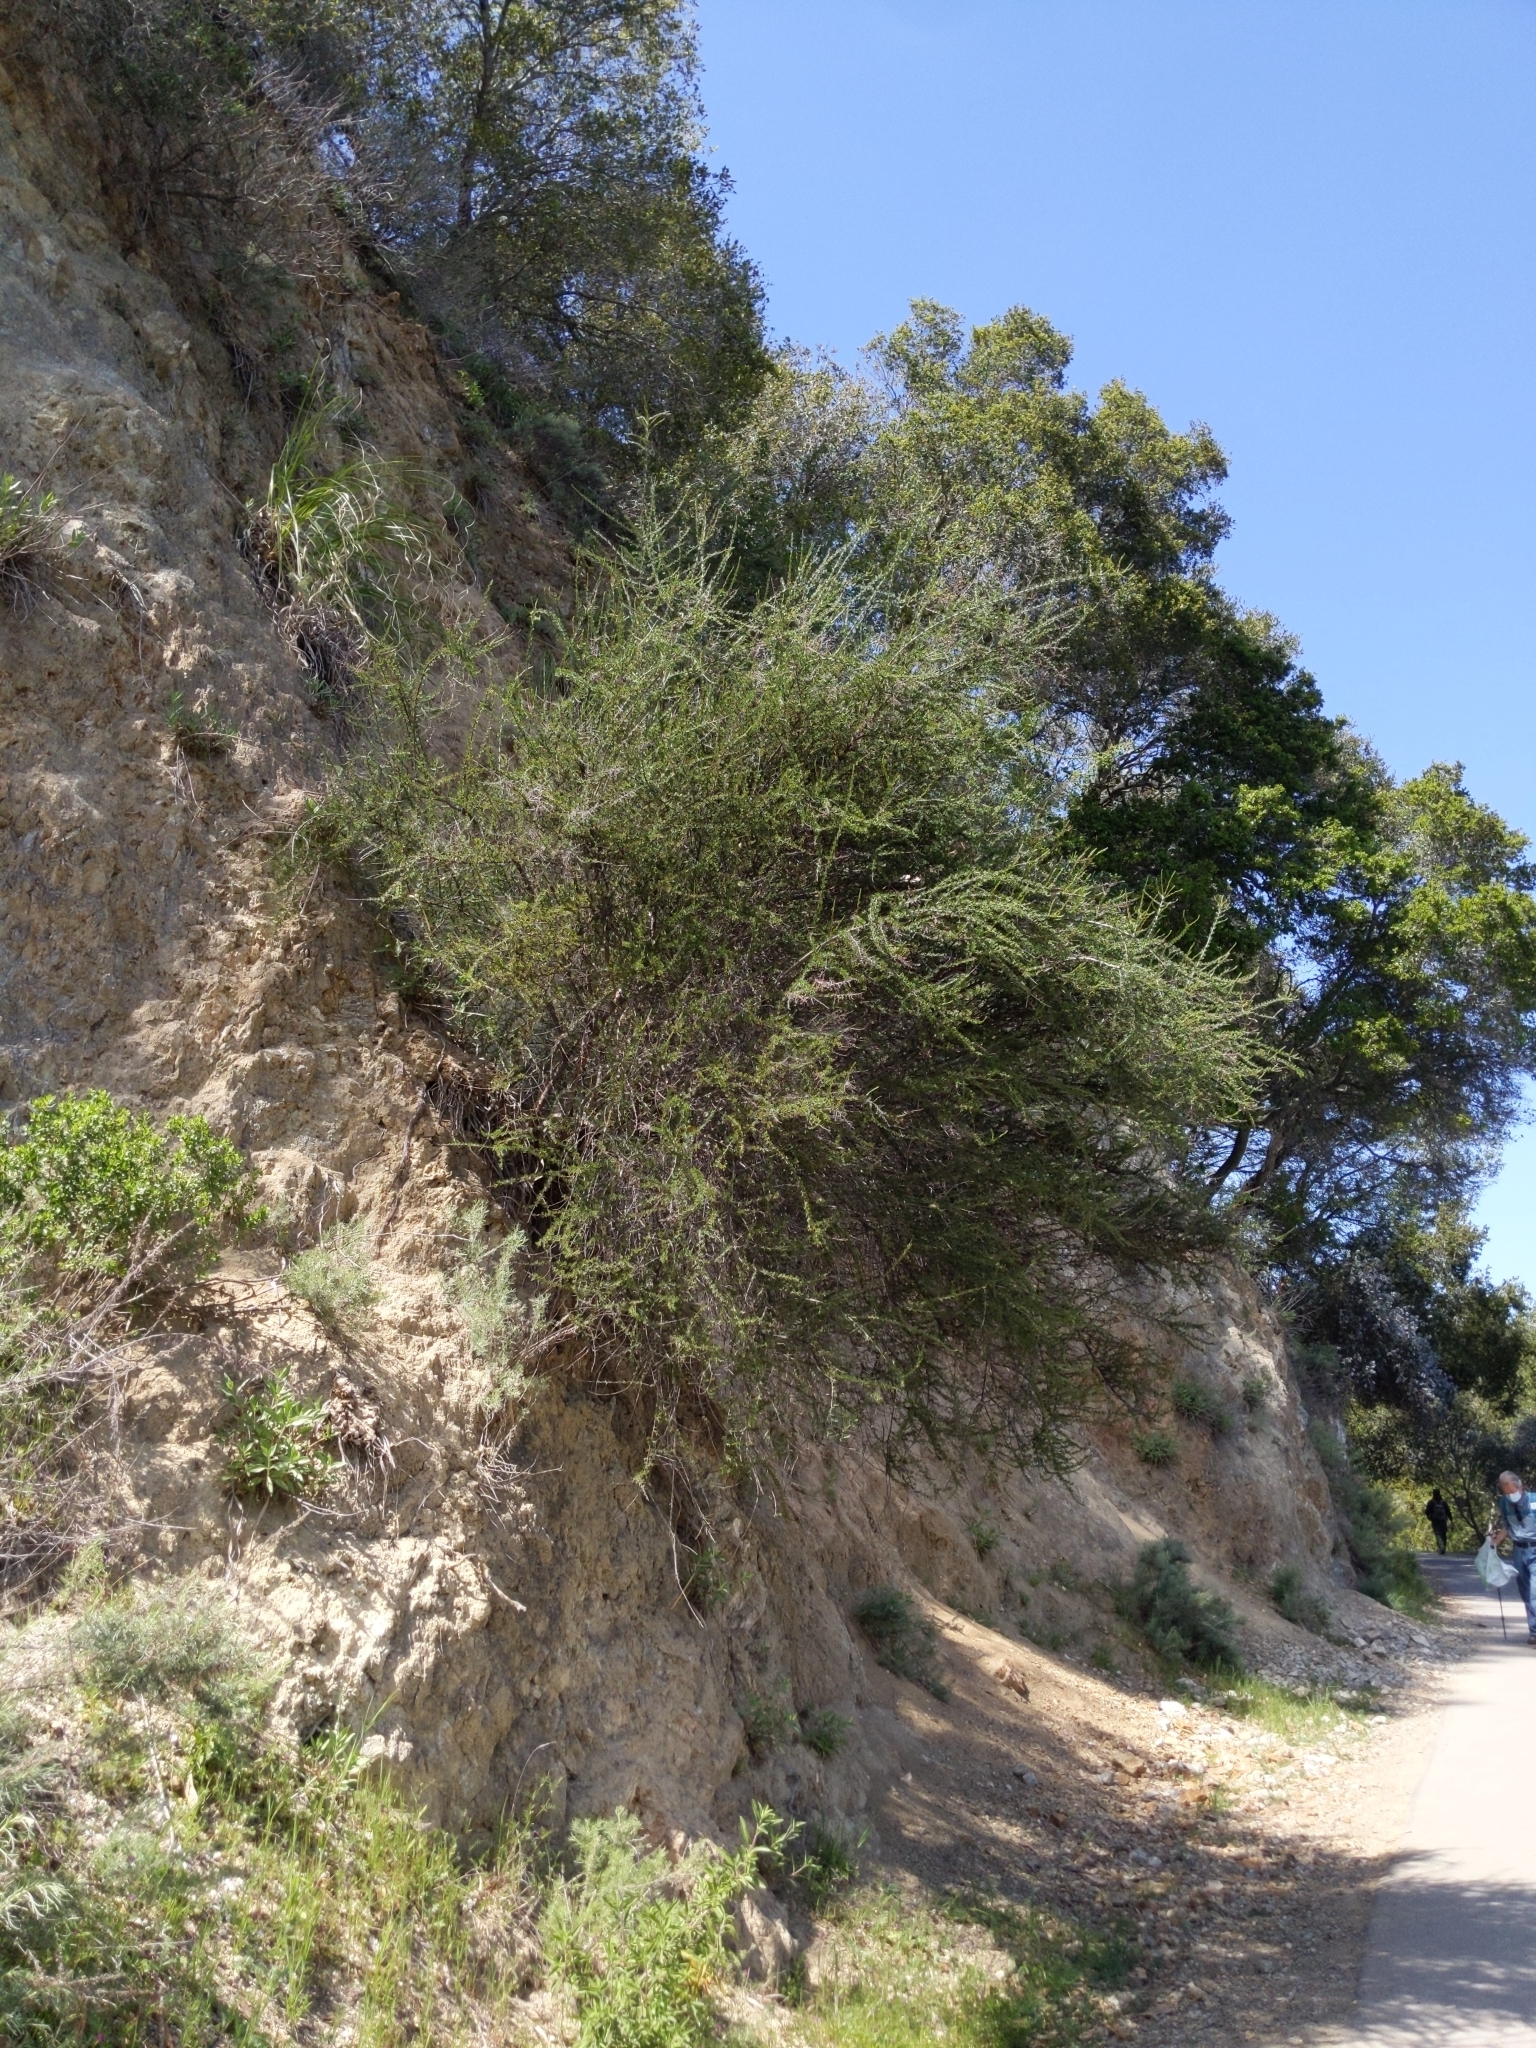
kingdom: Plantae
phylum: Tracheophyta
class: Magnoliopsida
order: Rosales
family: Rosaceae
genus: Adenostoma
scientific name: Adenostoma fasciculatum
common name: Chamise
